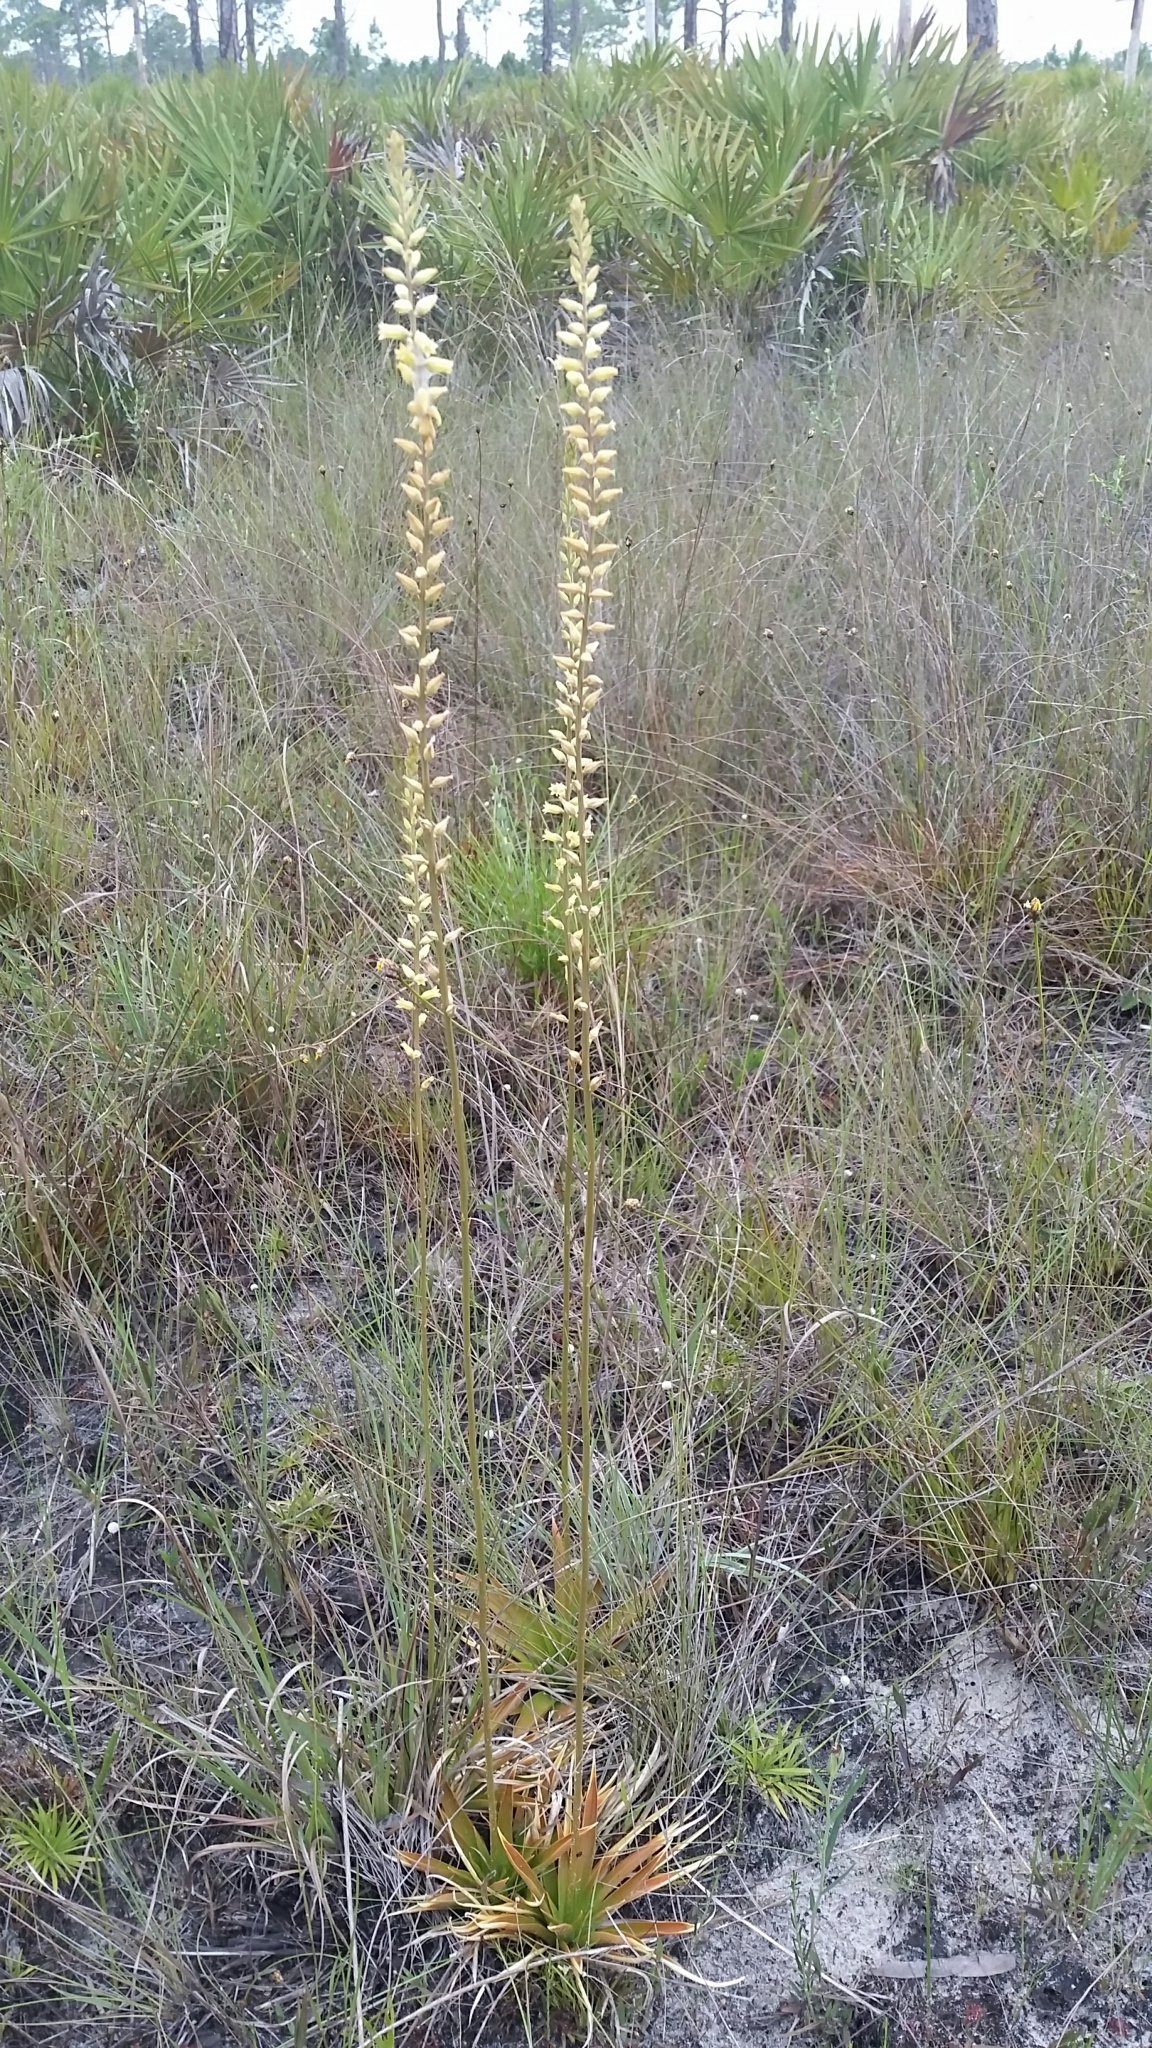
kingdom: Plantae
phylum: Tracheophyta
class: Liliopsida
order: Dioscoreales
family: Nartheciaceae
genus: Aletris
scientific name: Aletris lutea
